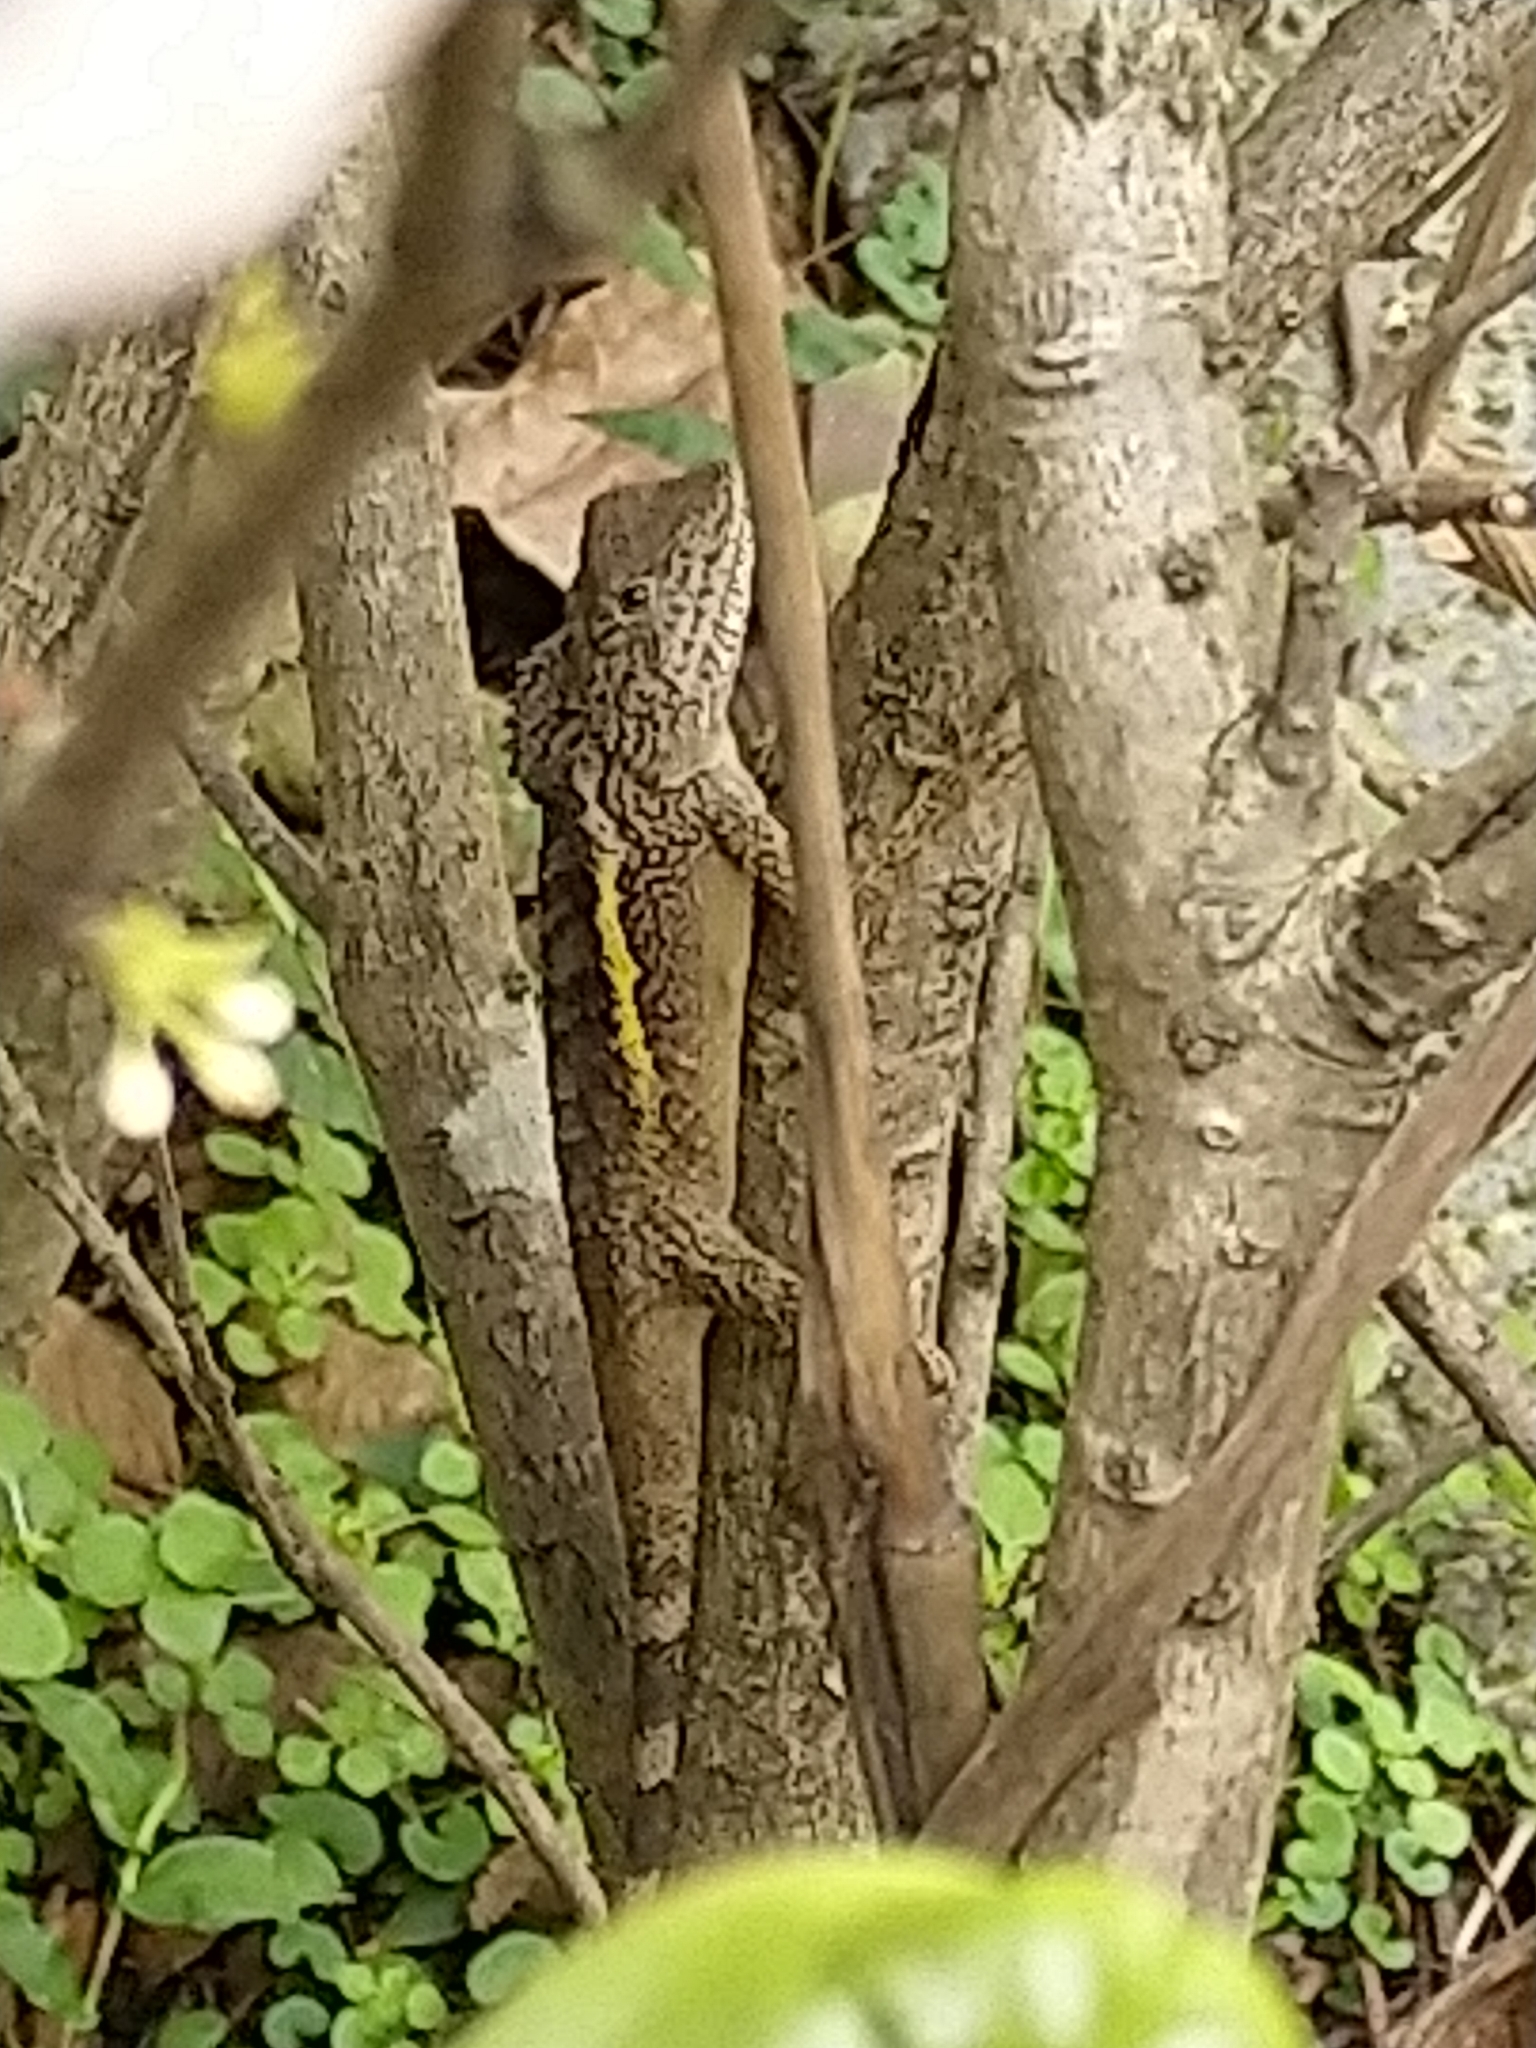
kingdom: Animalia
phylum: Chordata
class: Squamata
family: Agamidae
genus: Diploderma
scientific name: Diploderma swinhonis
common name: Taiwan japalure
